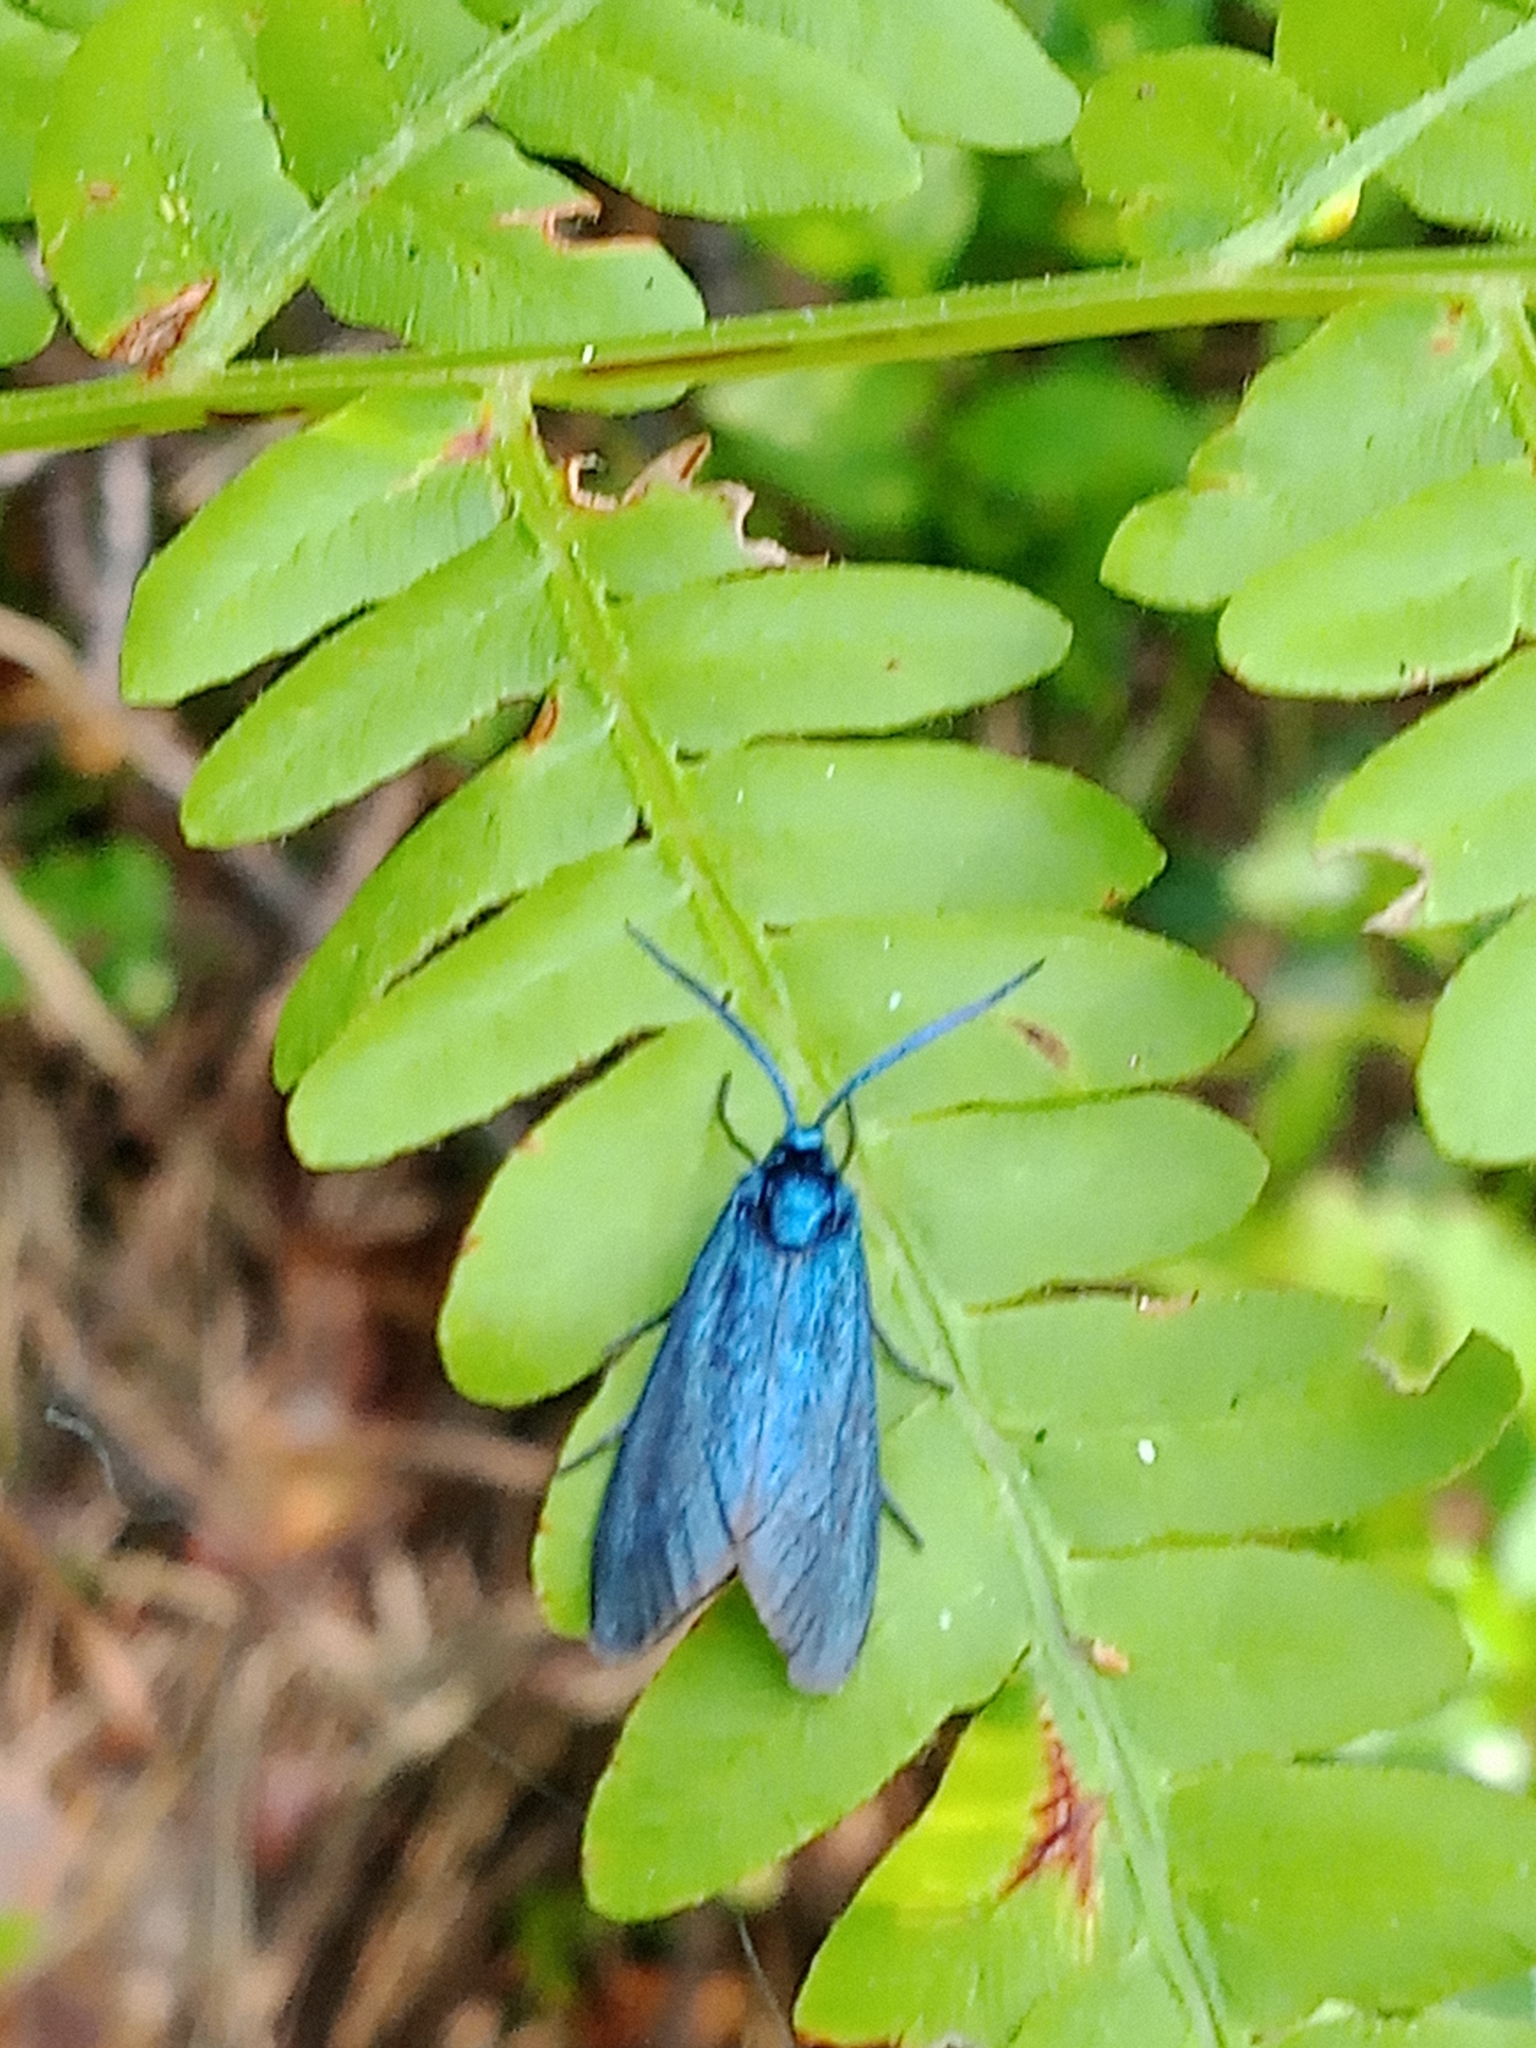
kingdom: Animalia
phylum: Arthropoda
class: Insecta
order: Lepidoptera
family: Zygaenidae
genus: Adscita
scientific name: Adscita statices
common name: Forester
